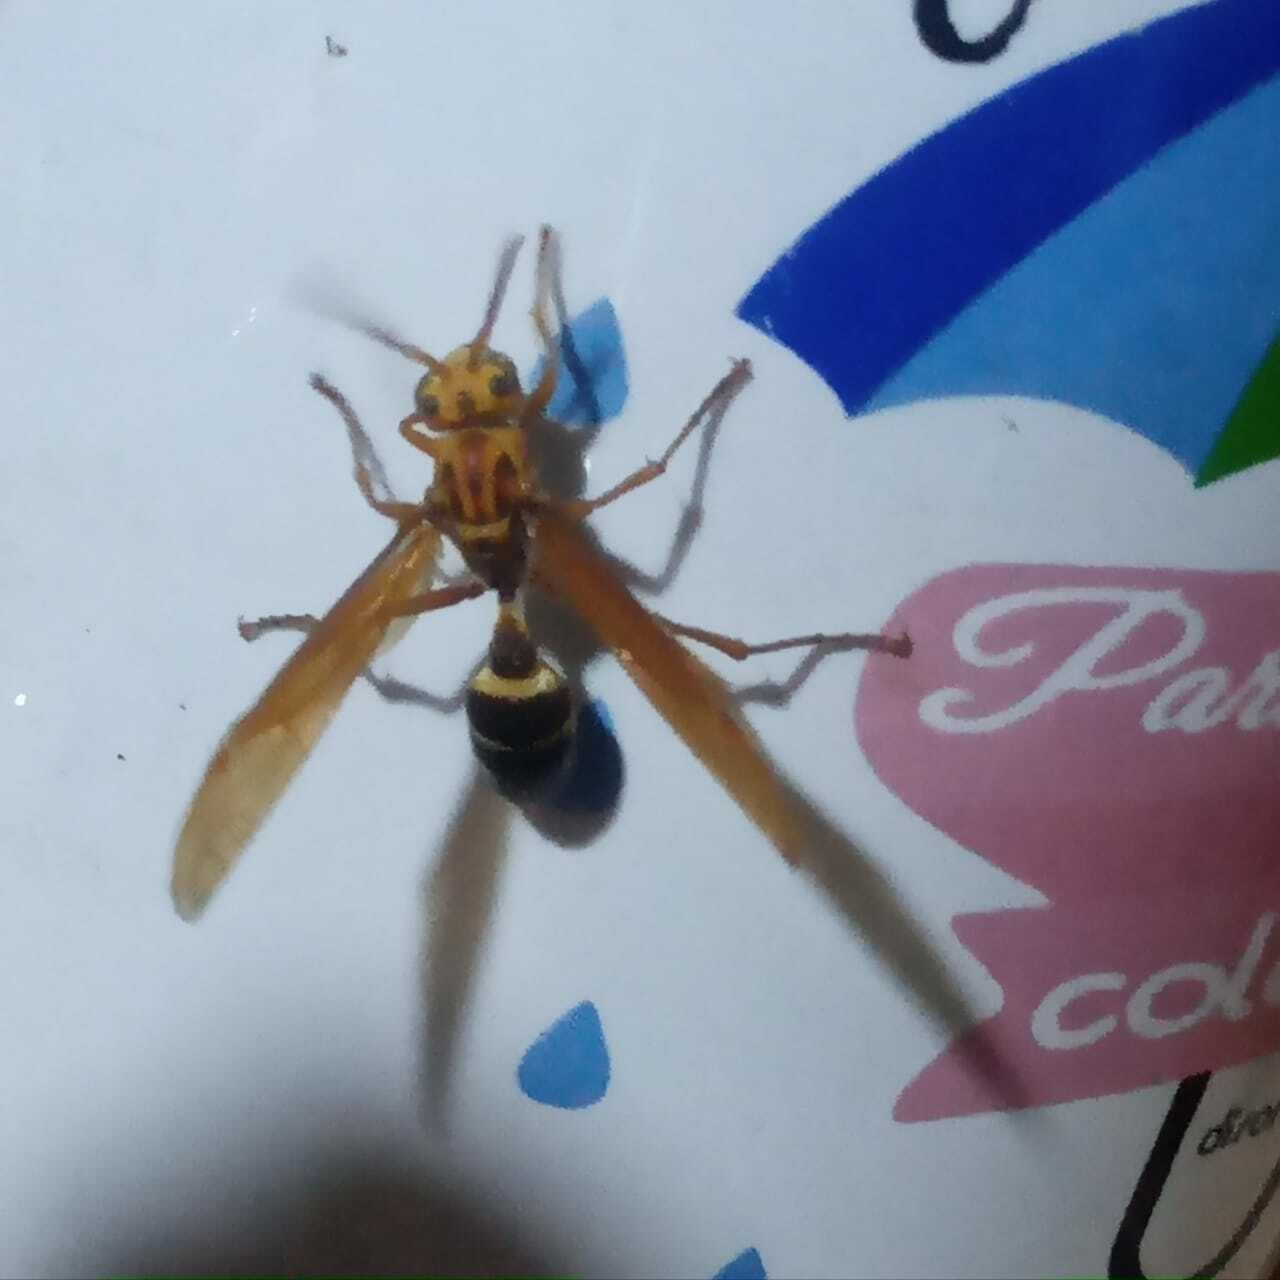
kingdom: Animalia
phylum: Arthropoda
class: Insecta
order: Hymenoptera
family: Vespidae
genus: Agelaia
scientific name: Agelaia constructor
